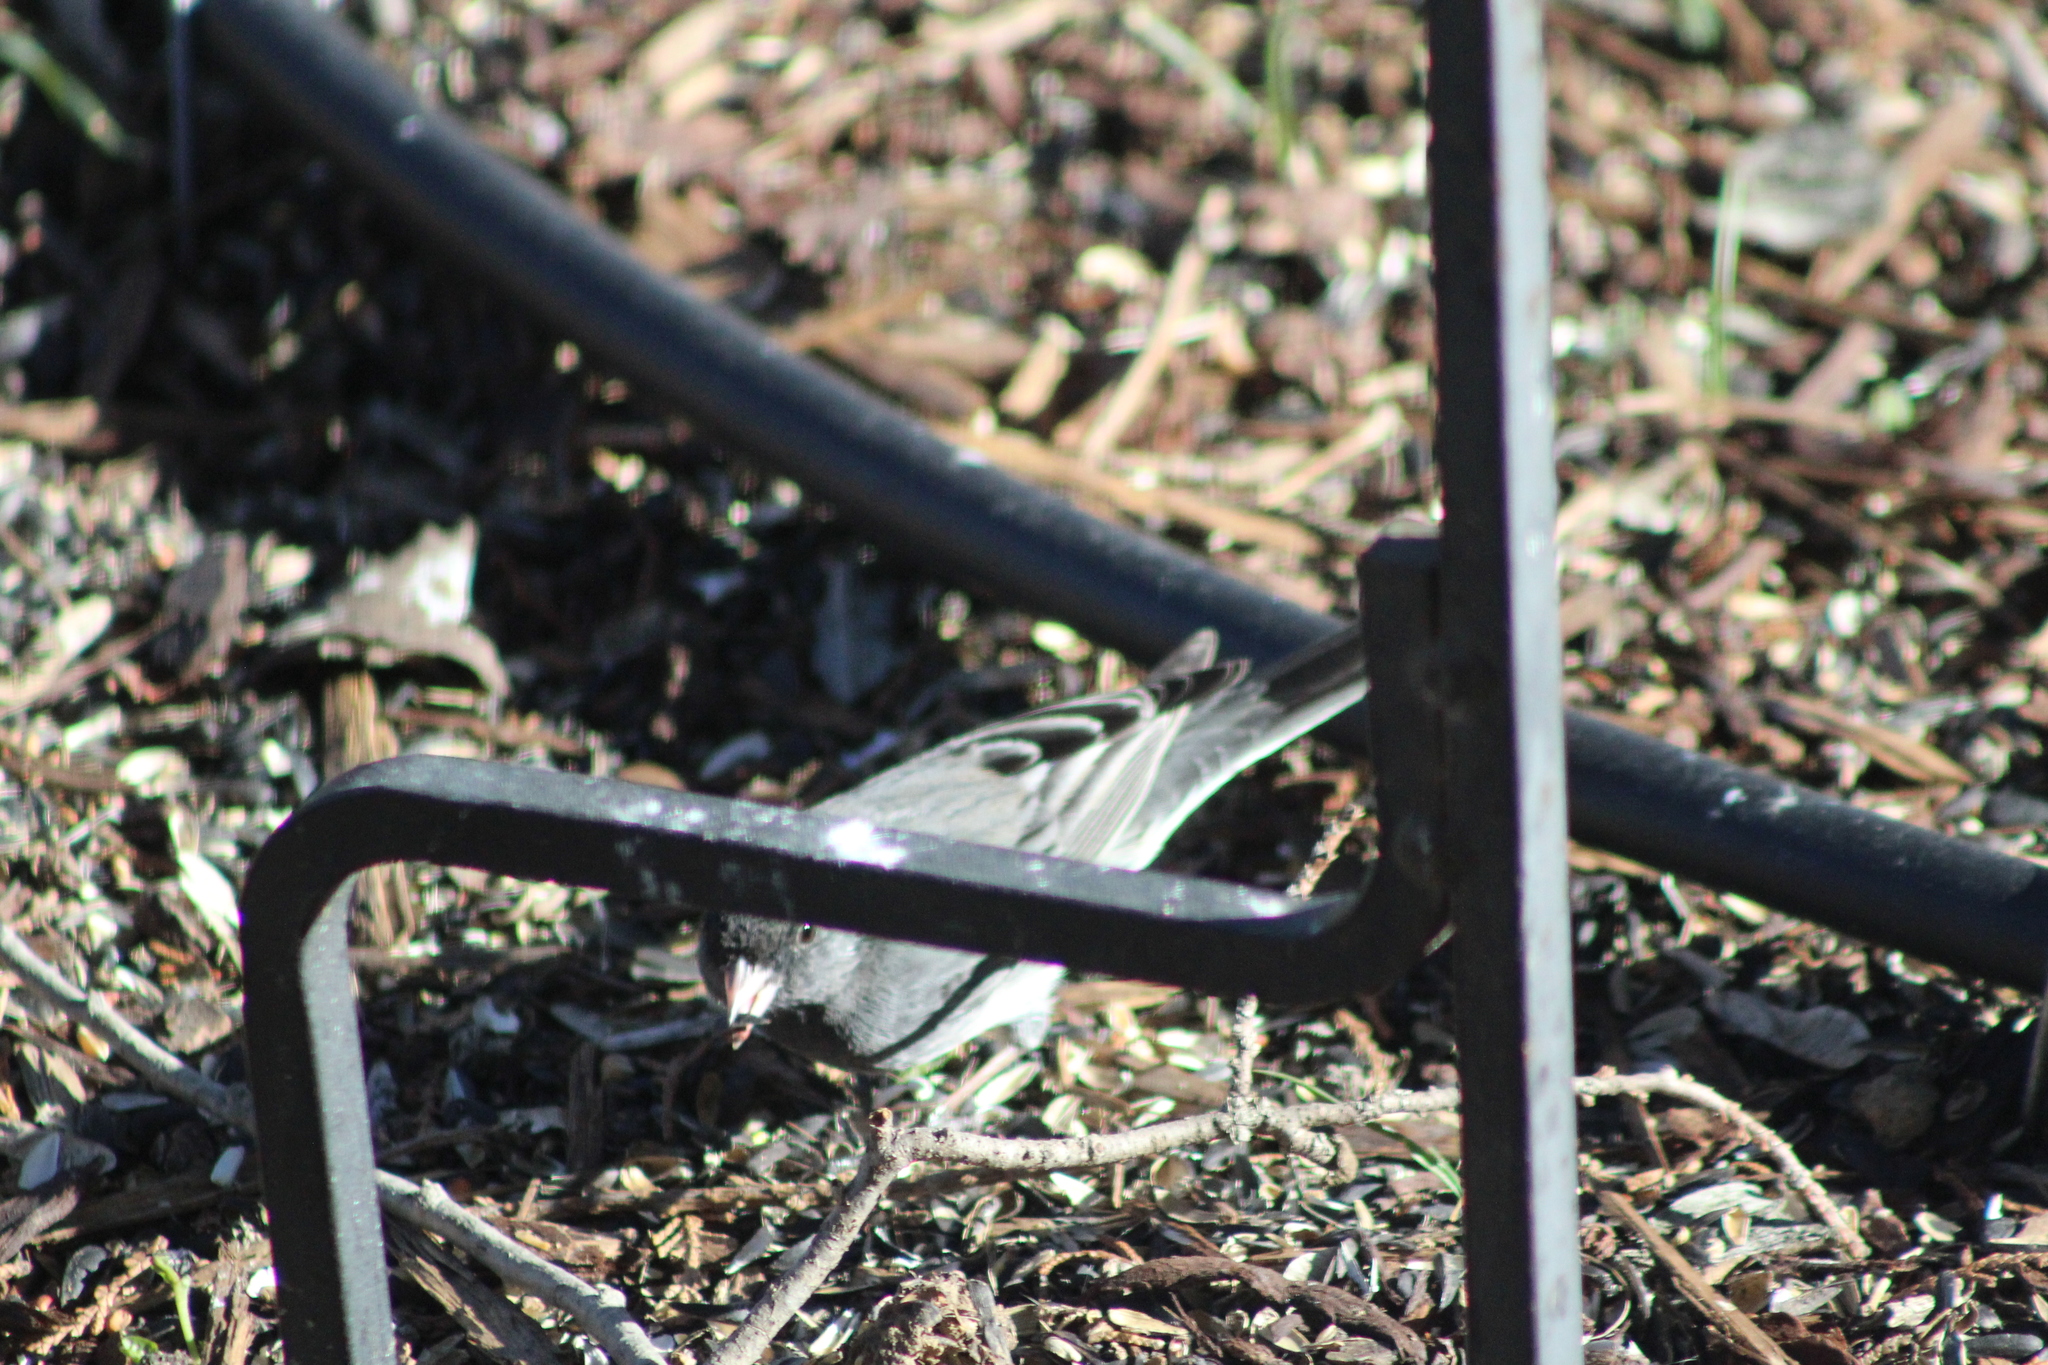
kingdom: Animalia
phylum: Chordata
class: Aves
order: Passeriformes
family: Passerellidae
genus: Junco
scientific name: Junco hyemalis
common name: Dark-eyed junco
